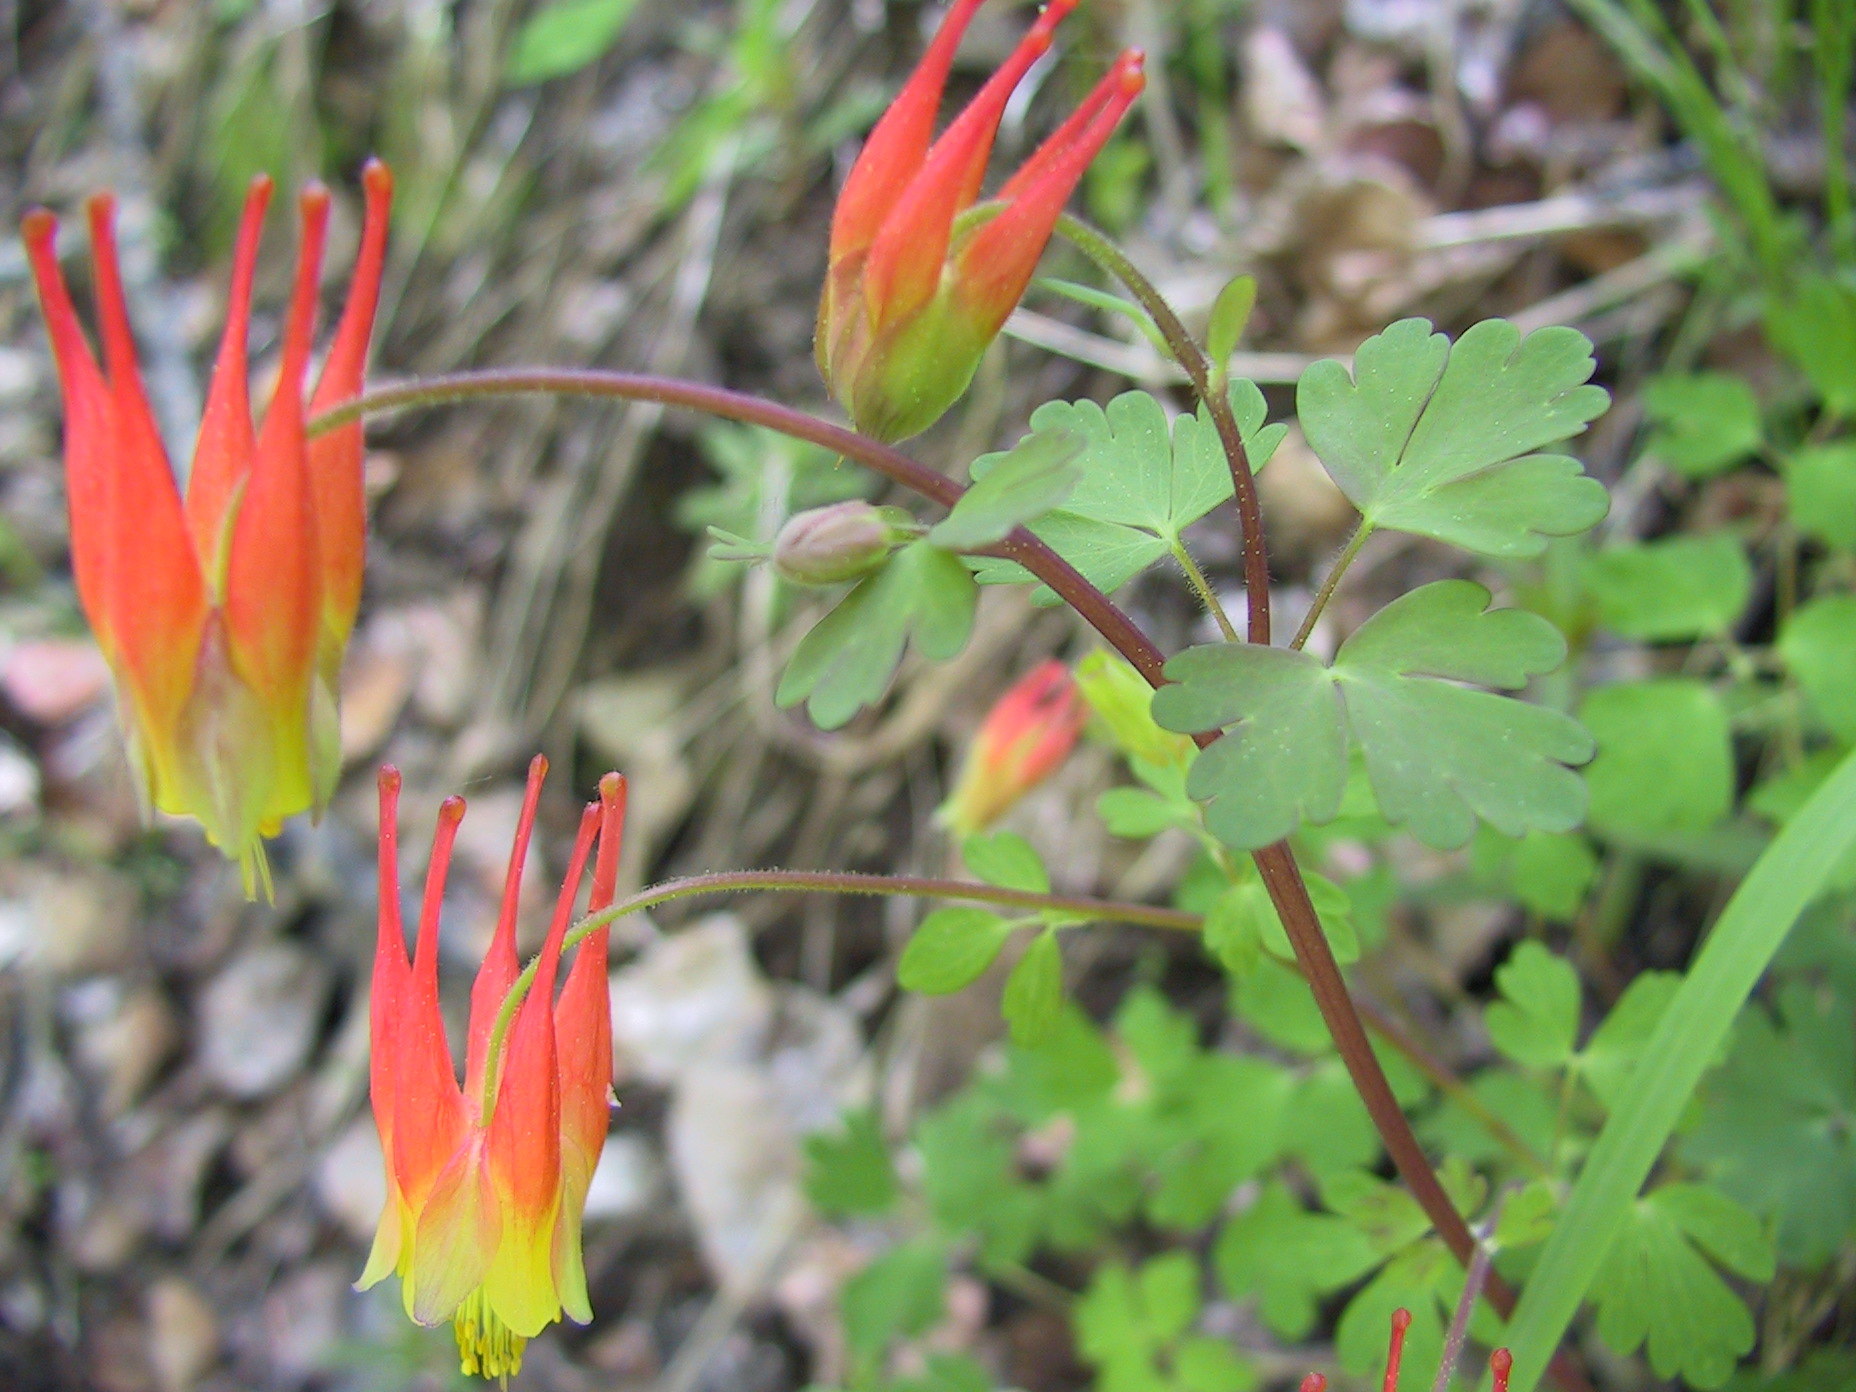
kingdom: Plantae
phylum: Tracheophyta
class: Magnoliopsida
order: Ranunculales
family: Ranunculaceae
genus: Aquilegia
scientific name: Aquilegia elegantula
